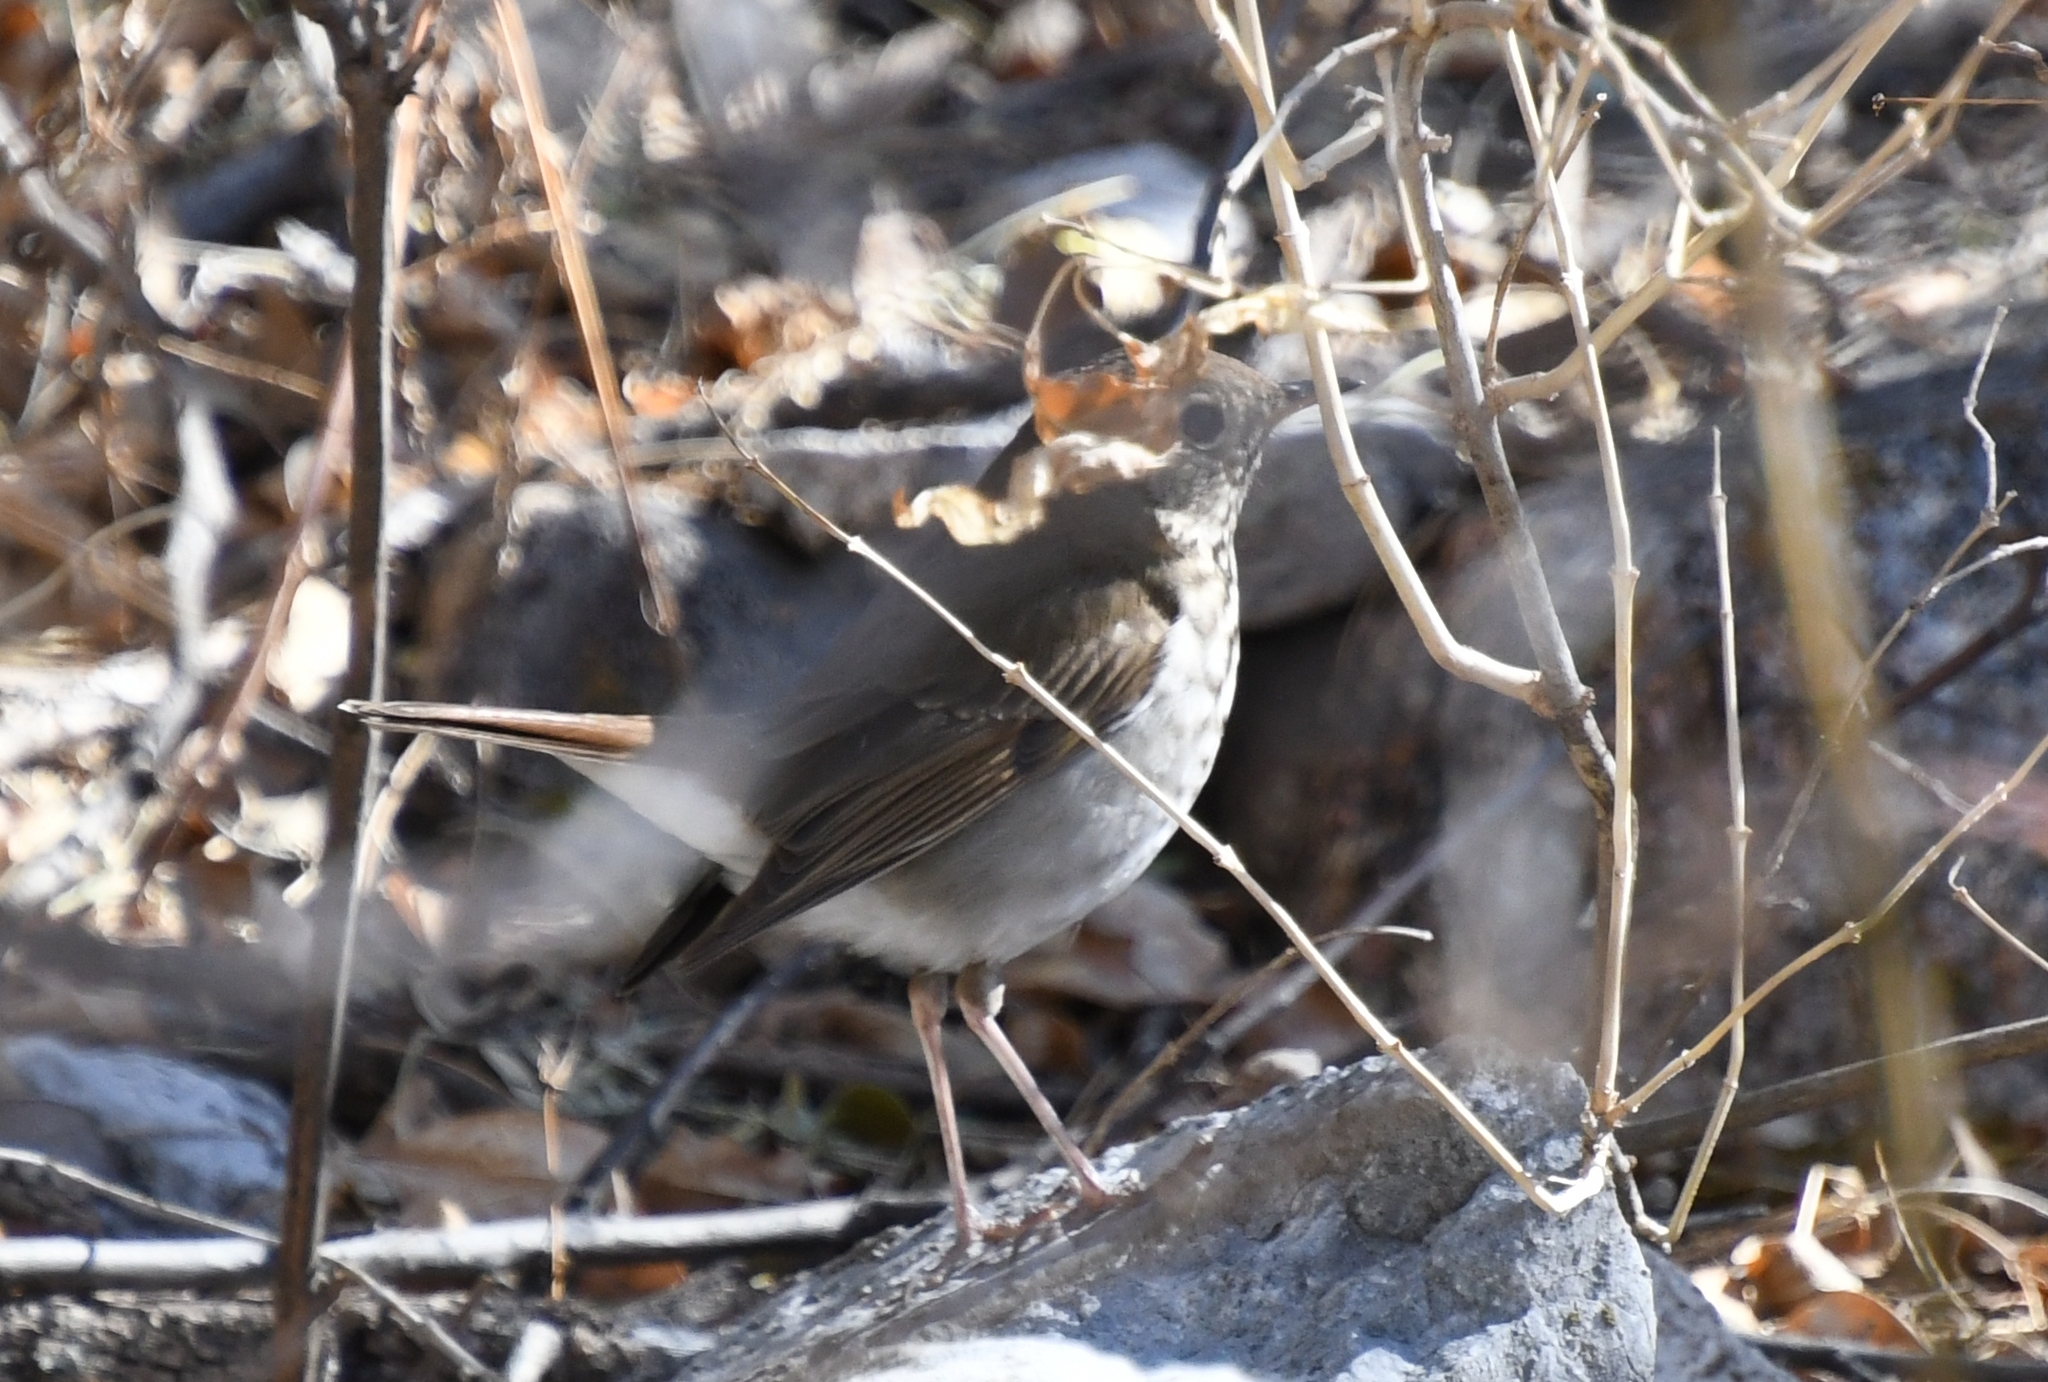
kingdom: Animalia
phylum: Chordata
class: Aves
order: Passeriformes
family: Turdidae
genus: Catharus
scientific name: Catharus guttatus
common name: Hermit thrush
